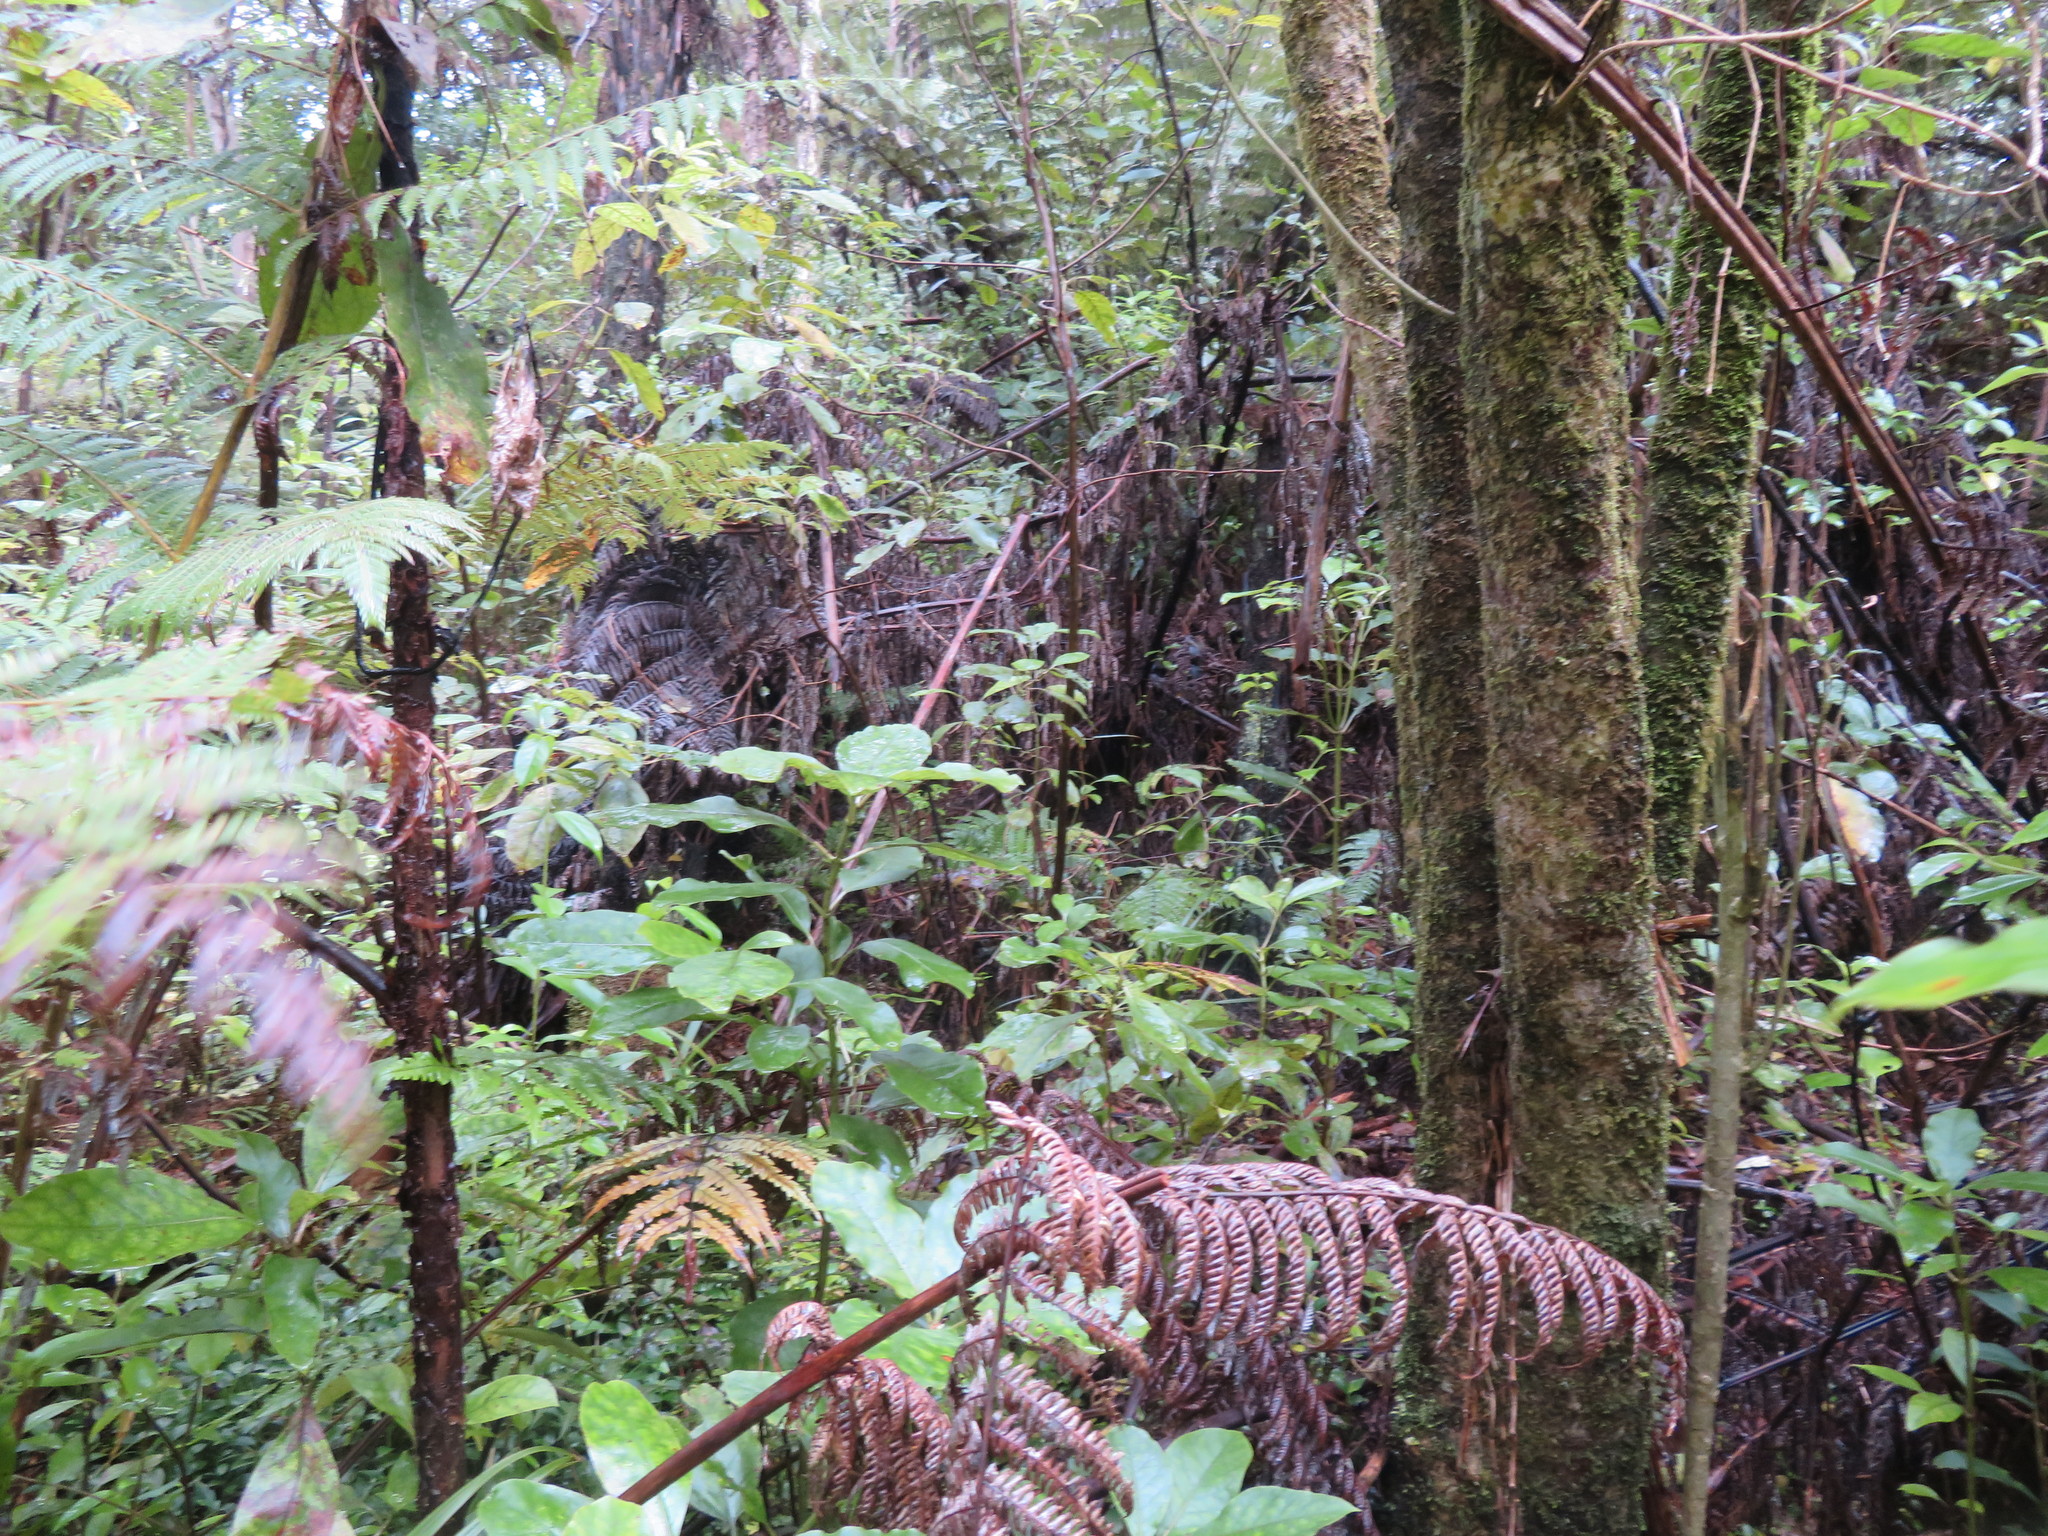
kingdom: Plantae
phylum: Tracheophyta
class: Magnoliopsida
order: Gentianales
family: Rubiaceae
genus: Coprosma
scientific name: Coprosma autumnalis
